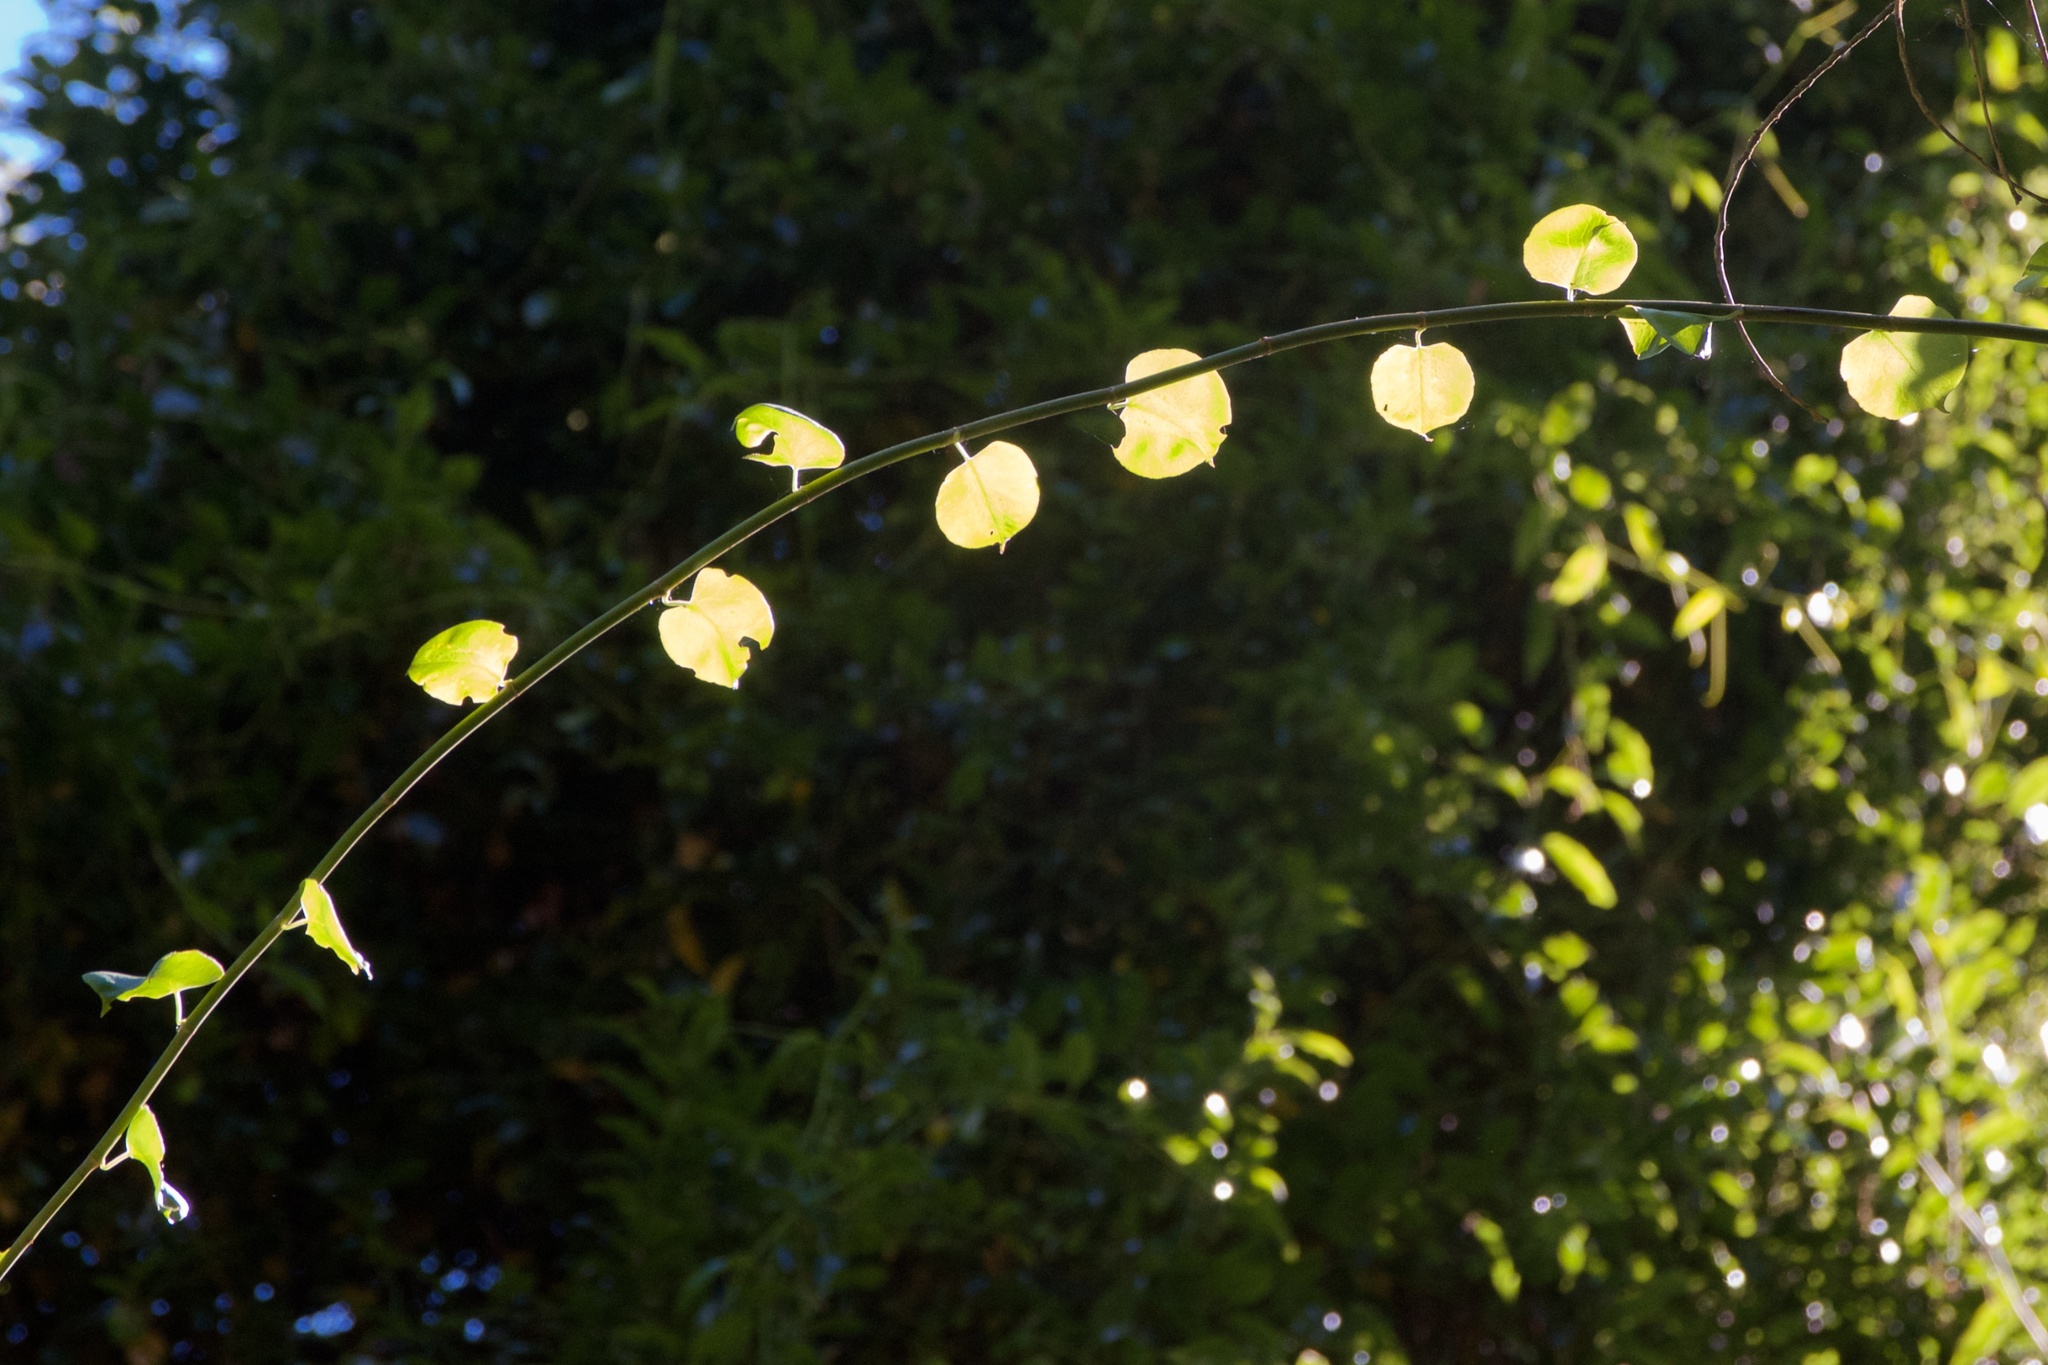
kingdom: Plantae
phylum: Tracheophyta
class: Magnoliopsida
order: Caryophyllales
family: Polygonaceae
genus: Muehlenbeckia
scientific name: Muehlenbeckia australis
